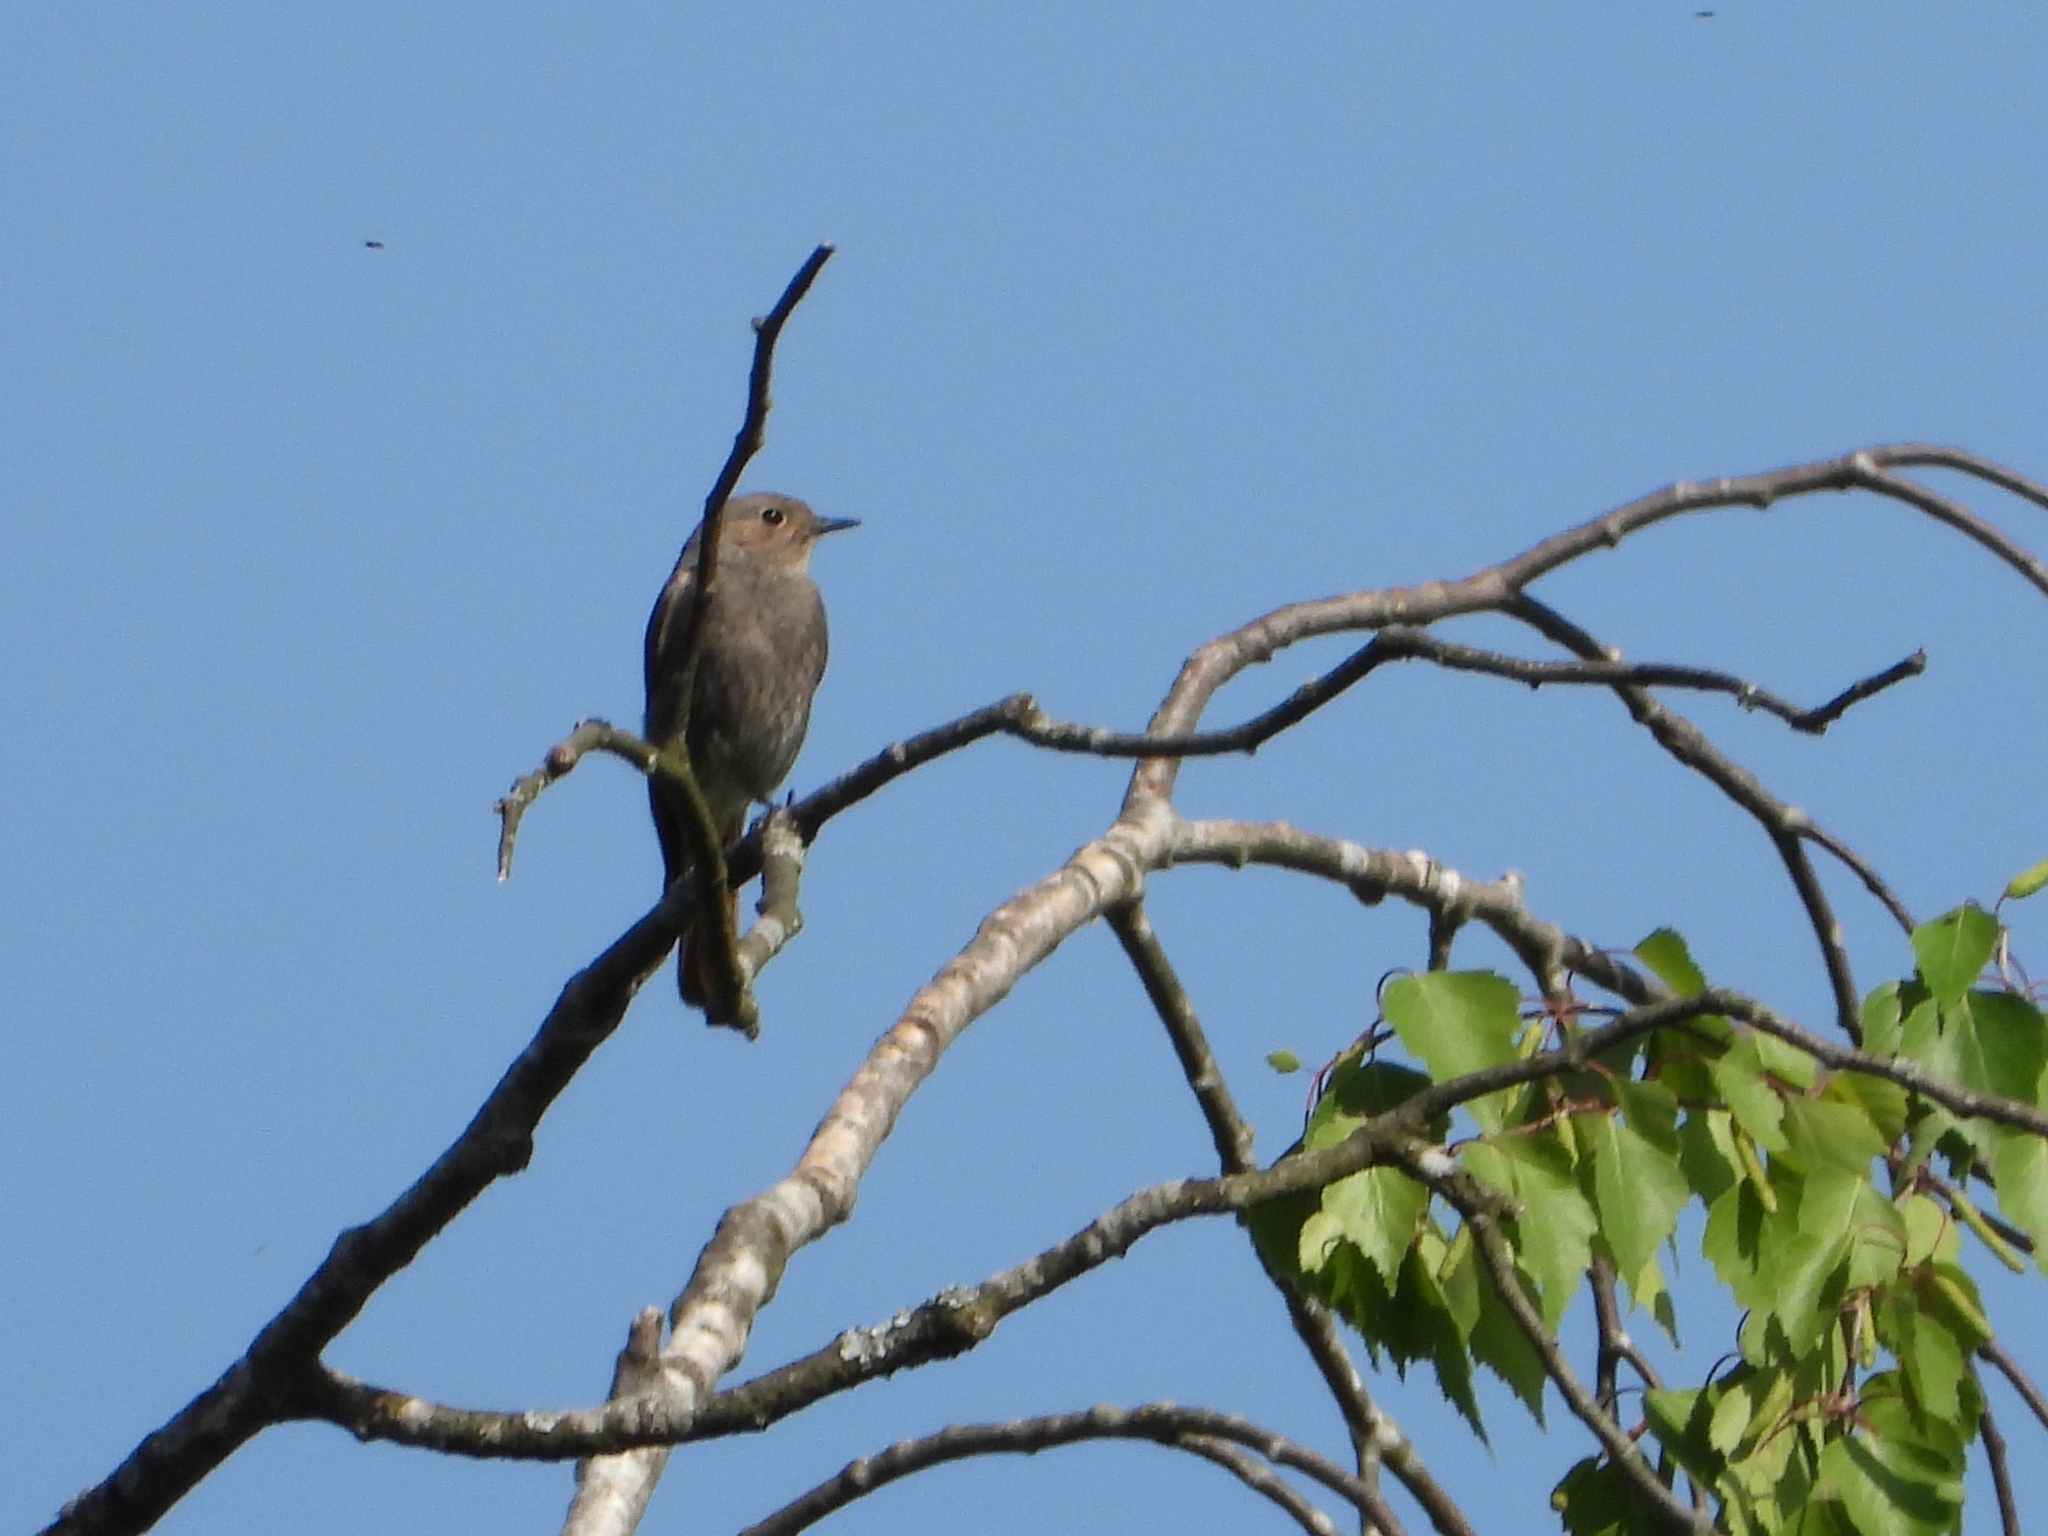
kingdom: Animalia
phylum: Chordata
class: Aves
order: Passeriformes
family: Muscicapidae
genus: Phoenicurus
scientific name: Phoenicurus ochruros
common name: Black redstart
